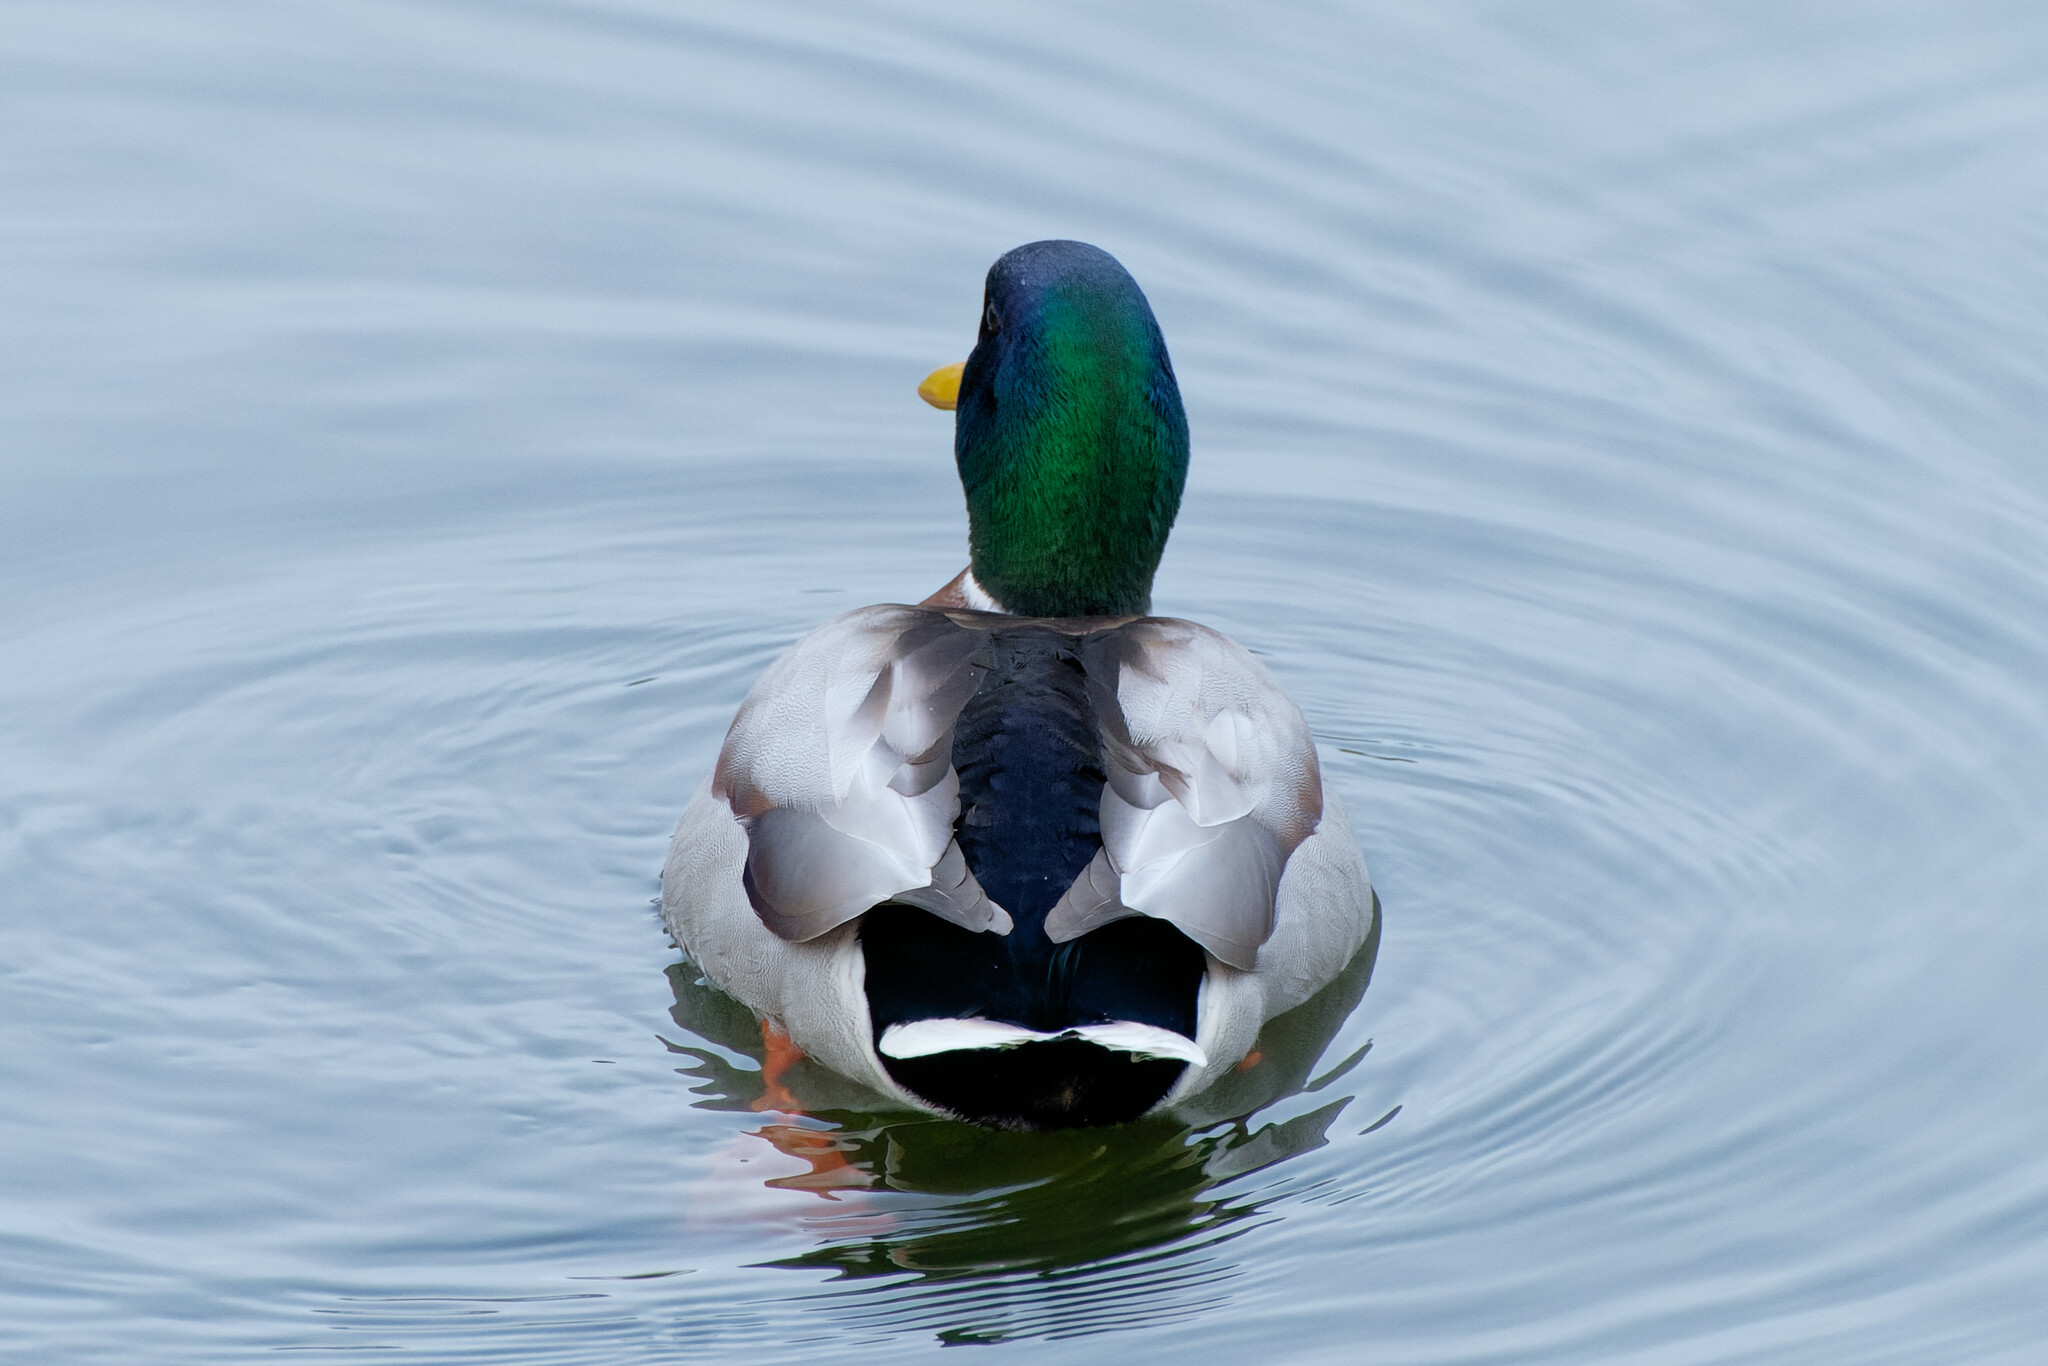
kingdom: Animalia
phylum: Chordata
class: Aves
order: Anseriformes
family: Anatidae
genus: Anas
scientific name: Anas platyrhynchos
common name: Mallard
